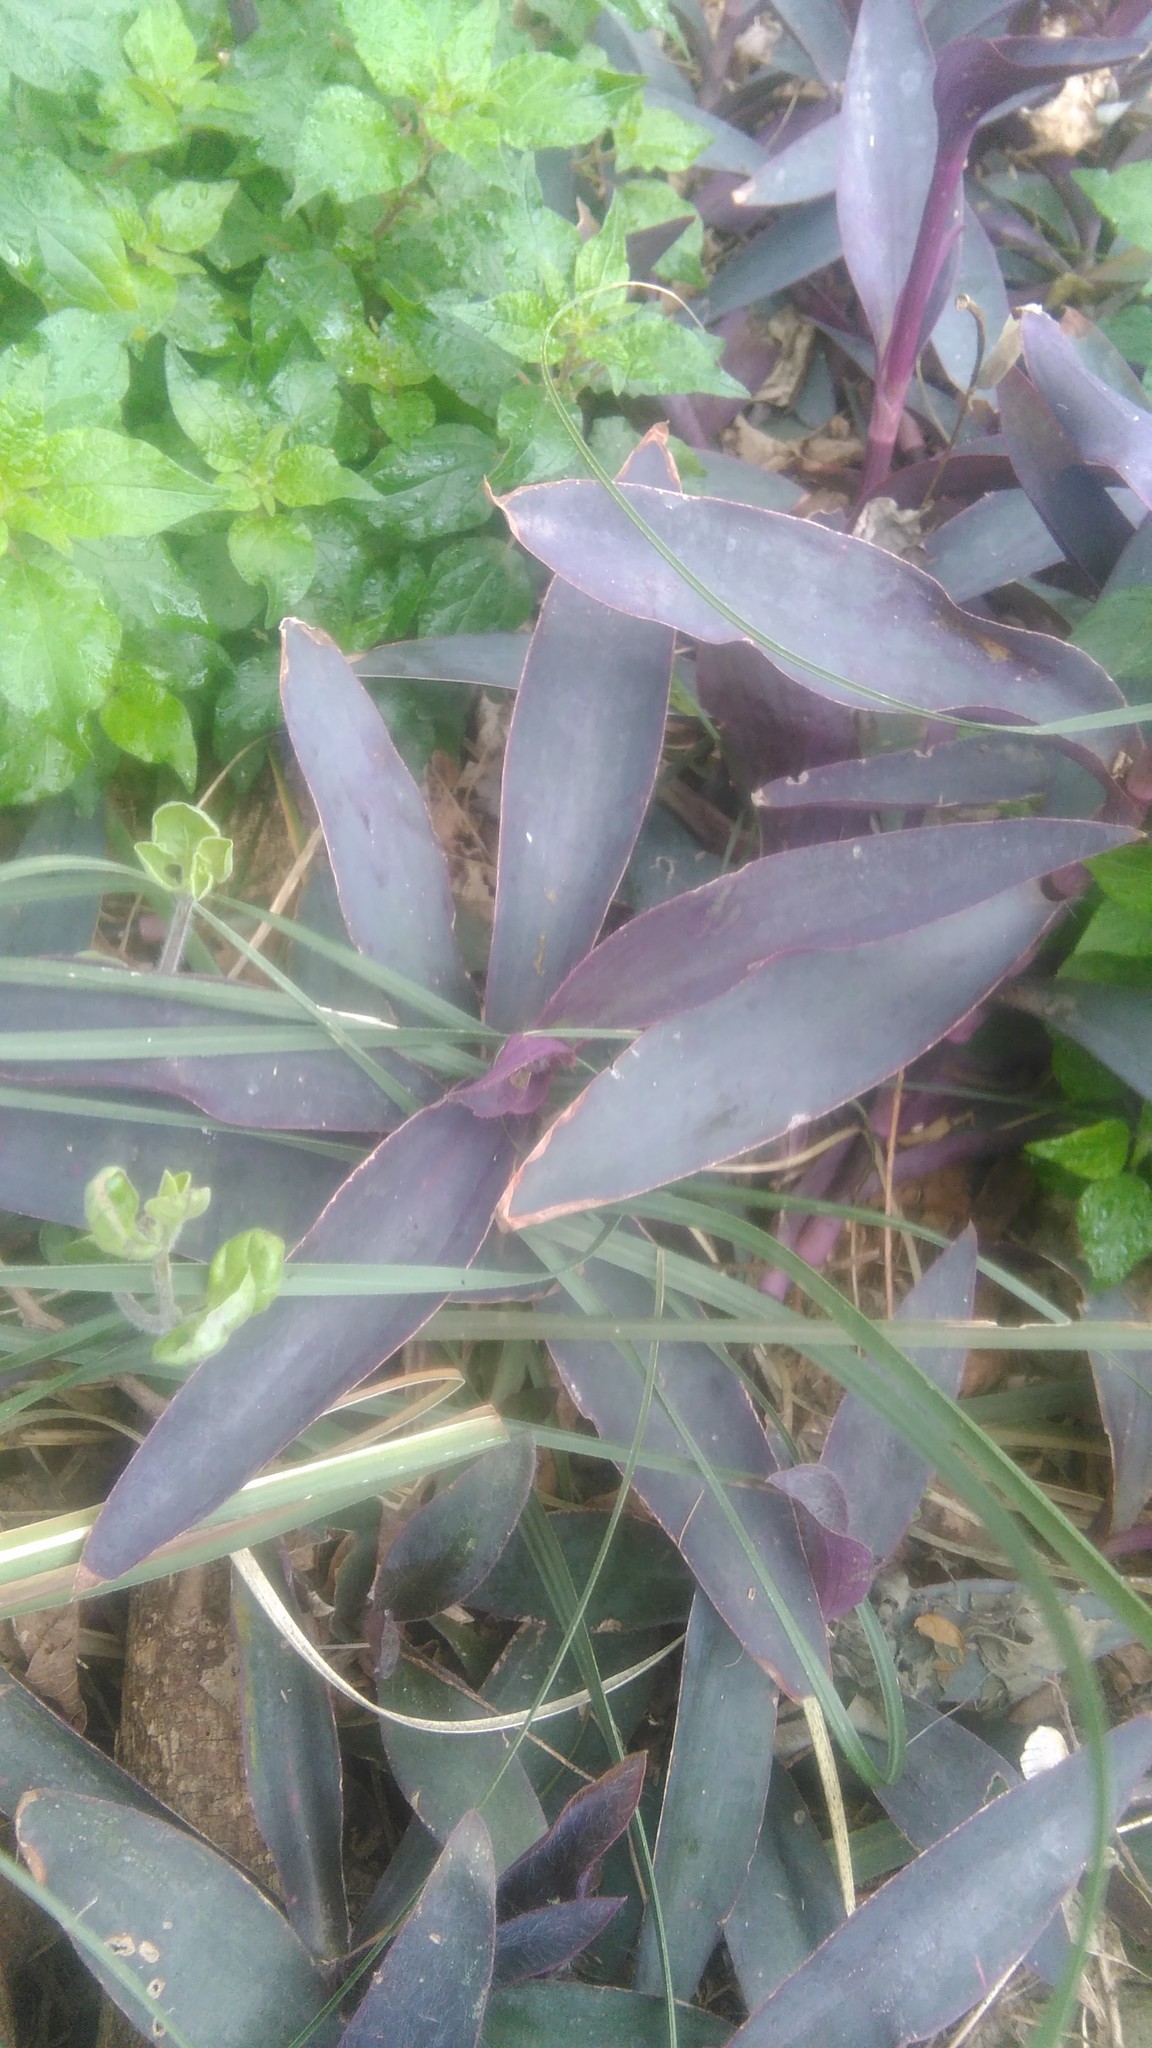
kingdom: Plantae
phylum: Tracheophyta
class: Liliopsida
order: Commelinales
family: Commelinaceae
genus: Tradescantia
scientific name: Tradescantia pallida
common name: Purpleheart
